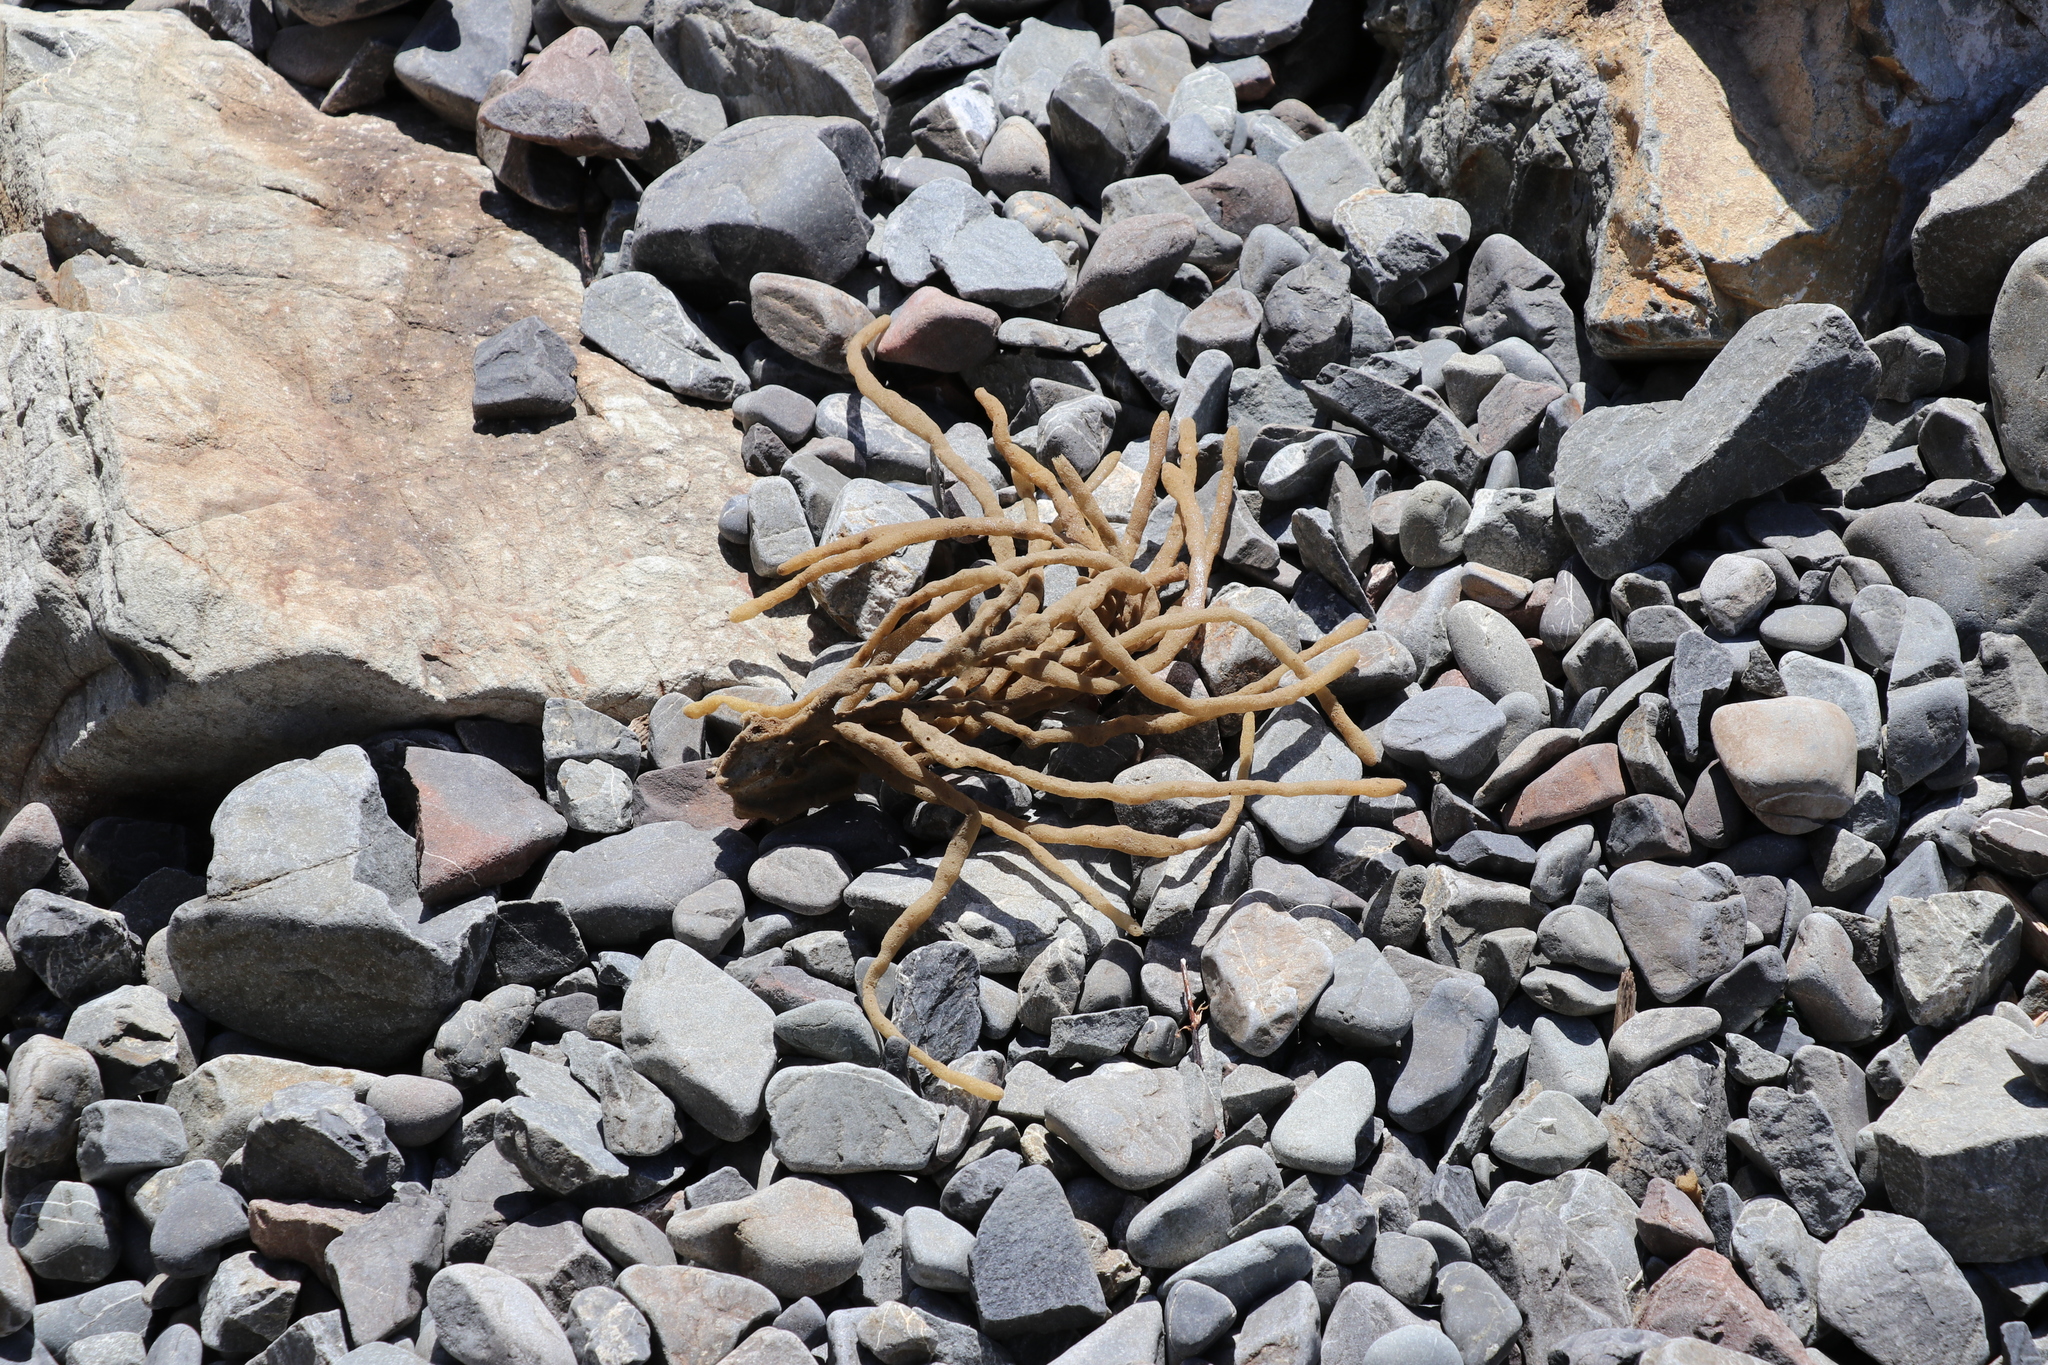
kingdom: Animalia
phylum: Porifera
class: Demospongiae
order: Haplosclerida
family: Callyspongiidae
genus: Callyspongia
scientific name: Callyspongia nuda
